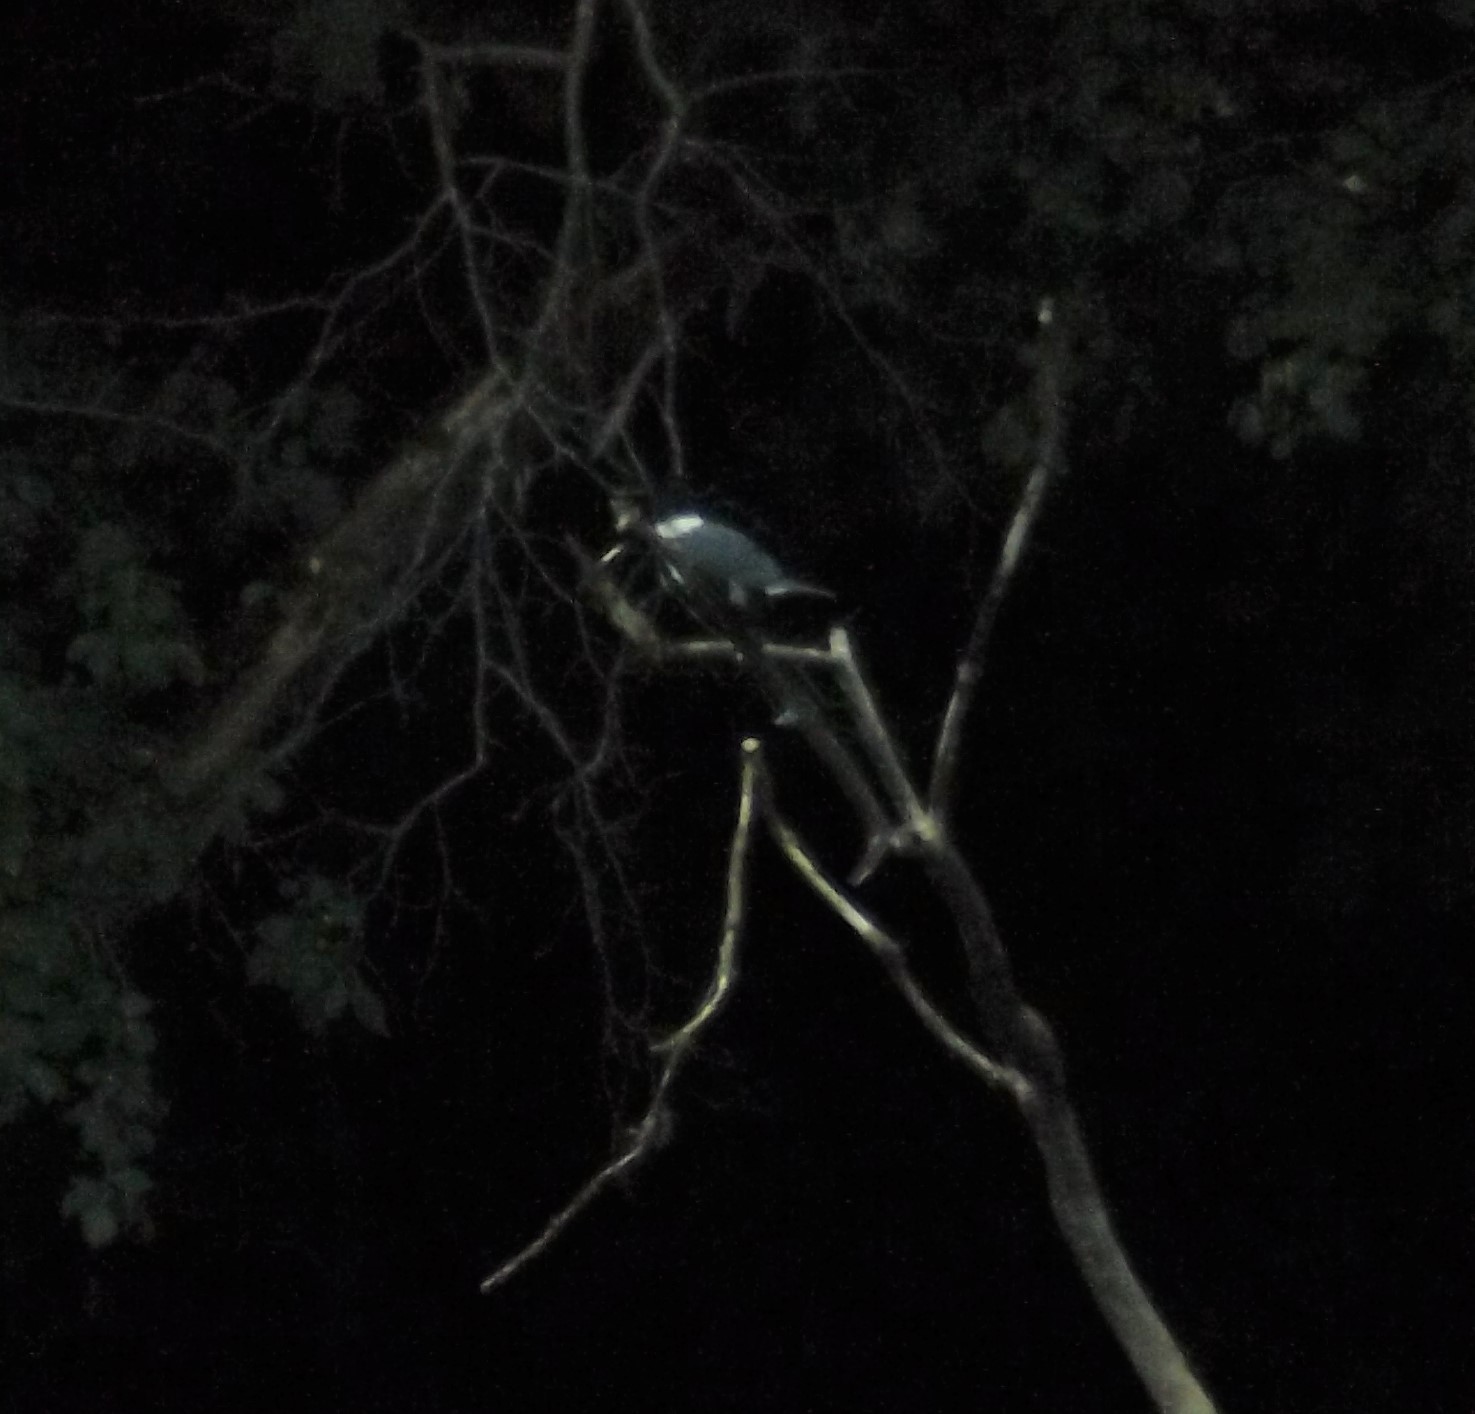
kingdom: Animalia
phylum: Chordata
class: Aves
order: Coraciiformes
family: Alcedinidae
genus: Megaceryle
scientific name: Megaceryle alcyon
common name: Belted kingfisher
